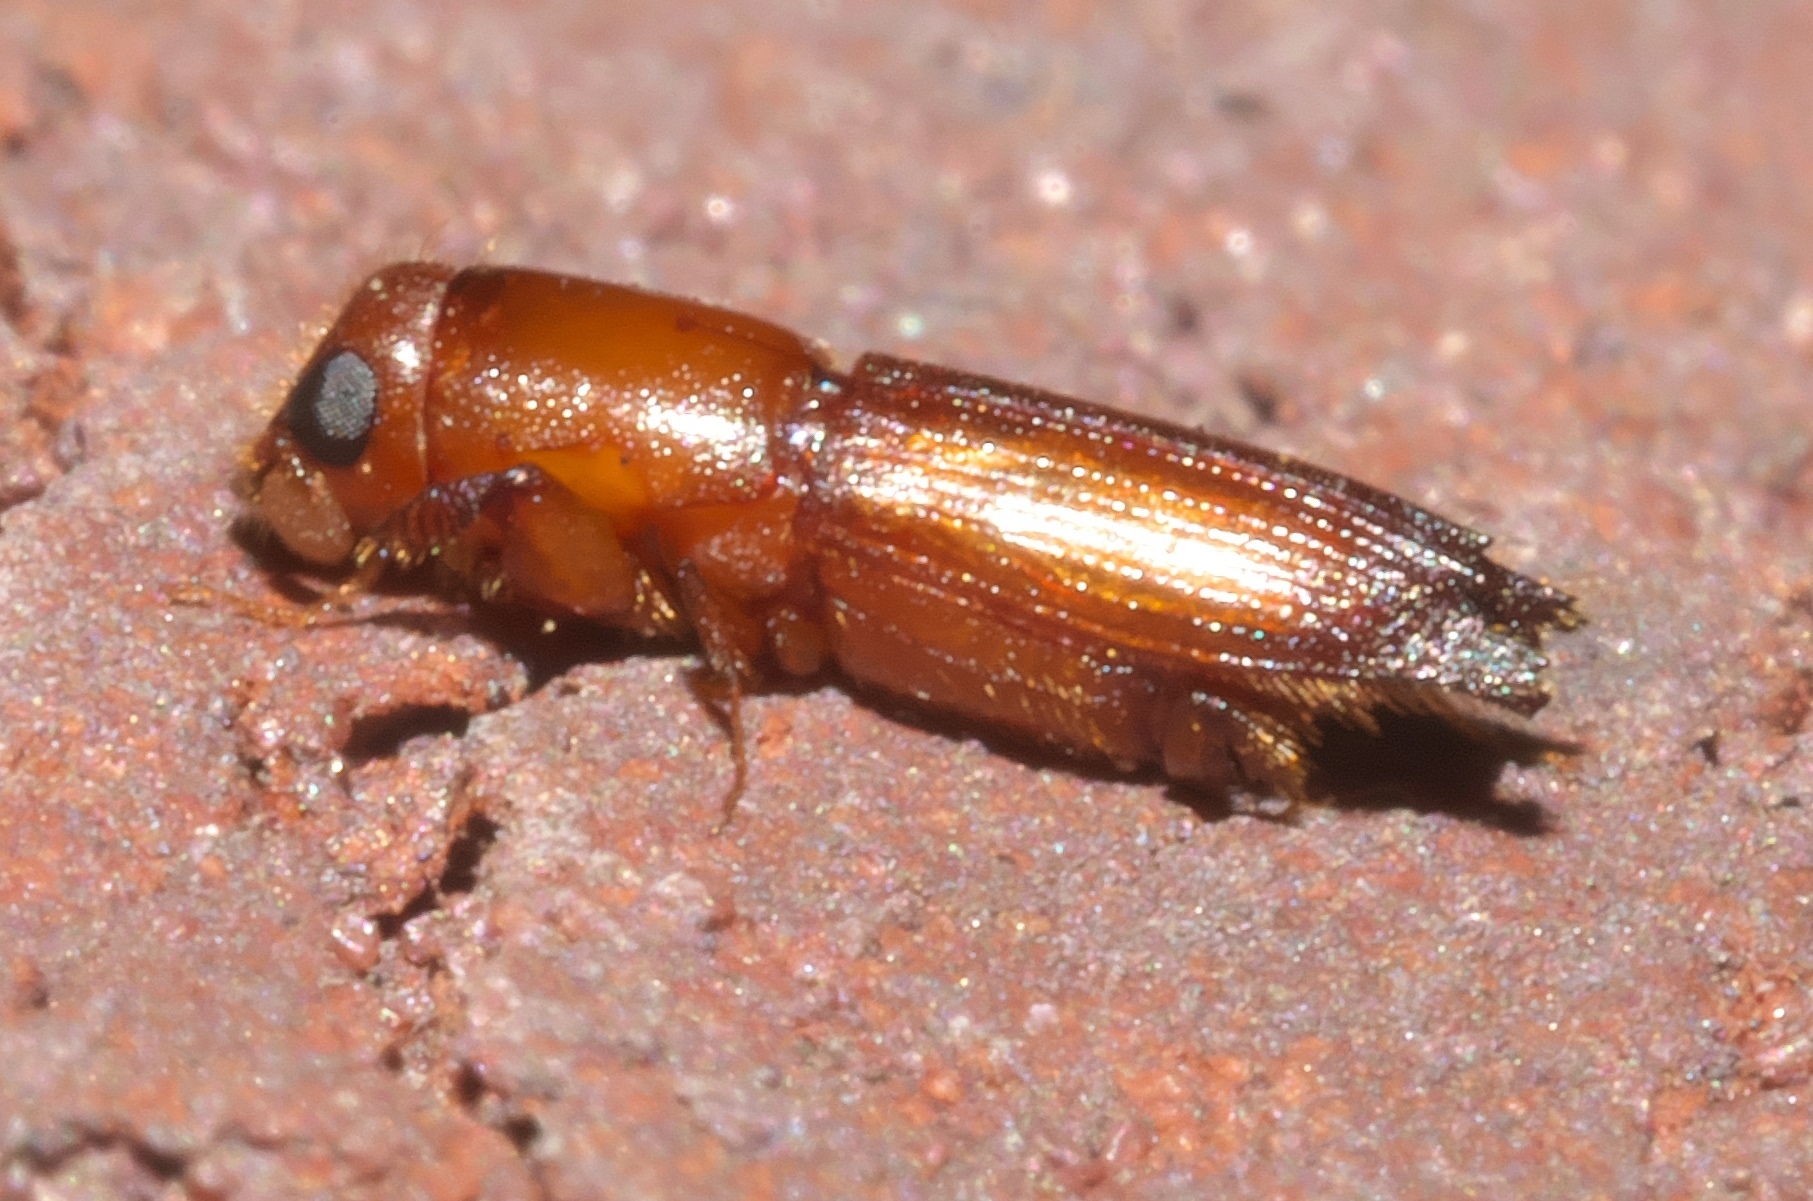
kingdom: Animalia
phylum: Arthropoda
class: Insecta
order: Coleoptera
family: Curculionidae
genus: Euplatypus
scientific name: Euplatypus compositus
